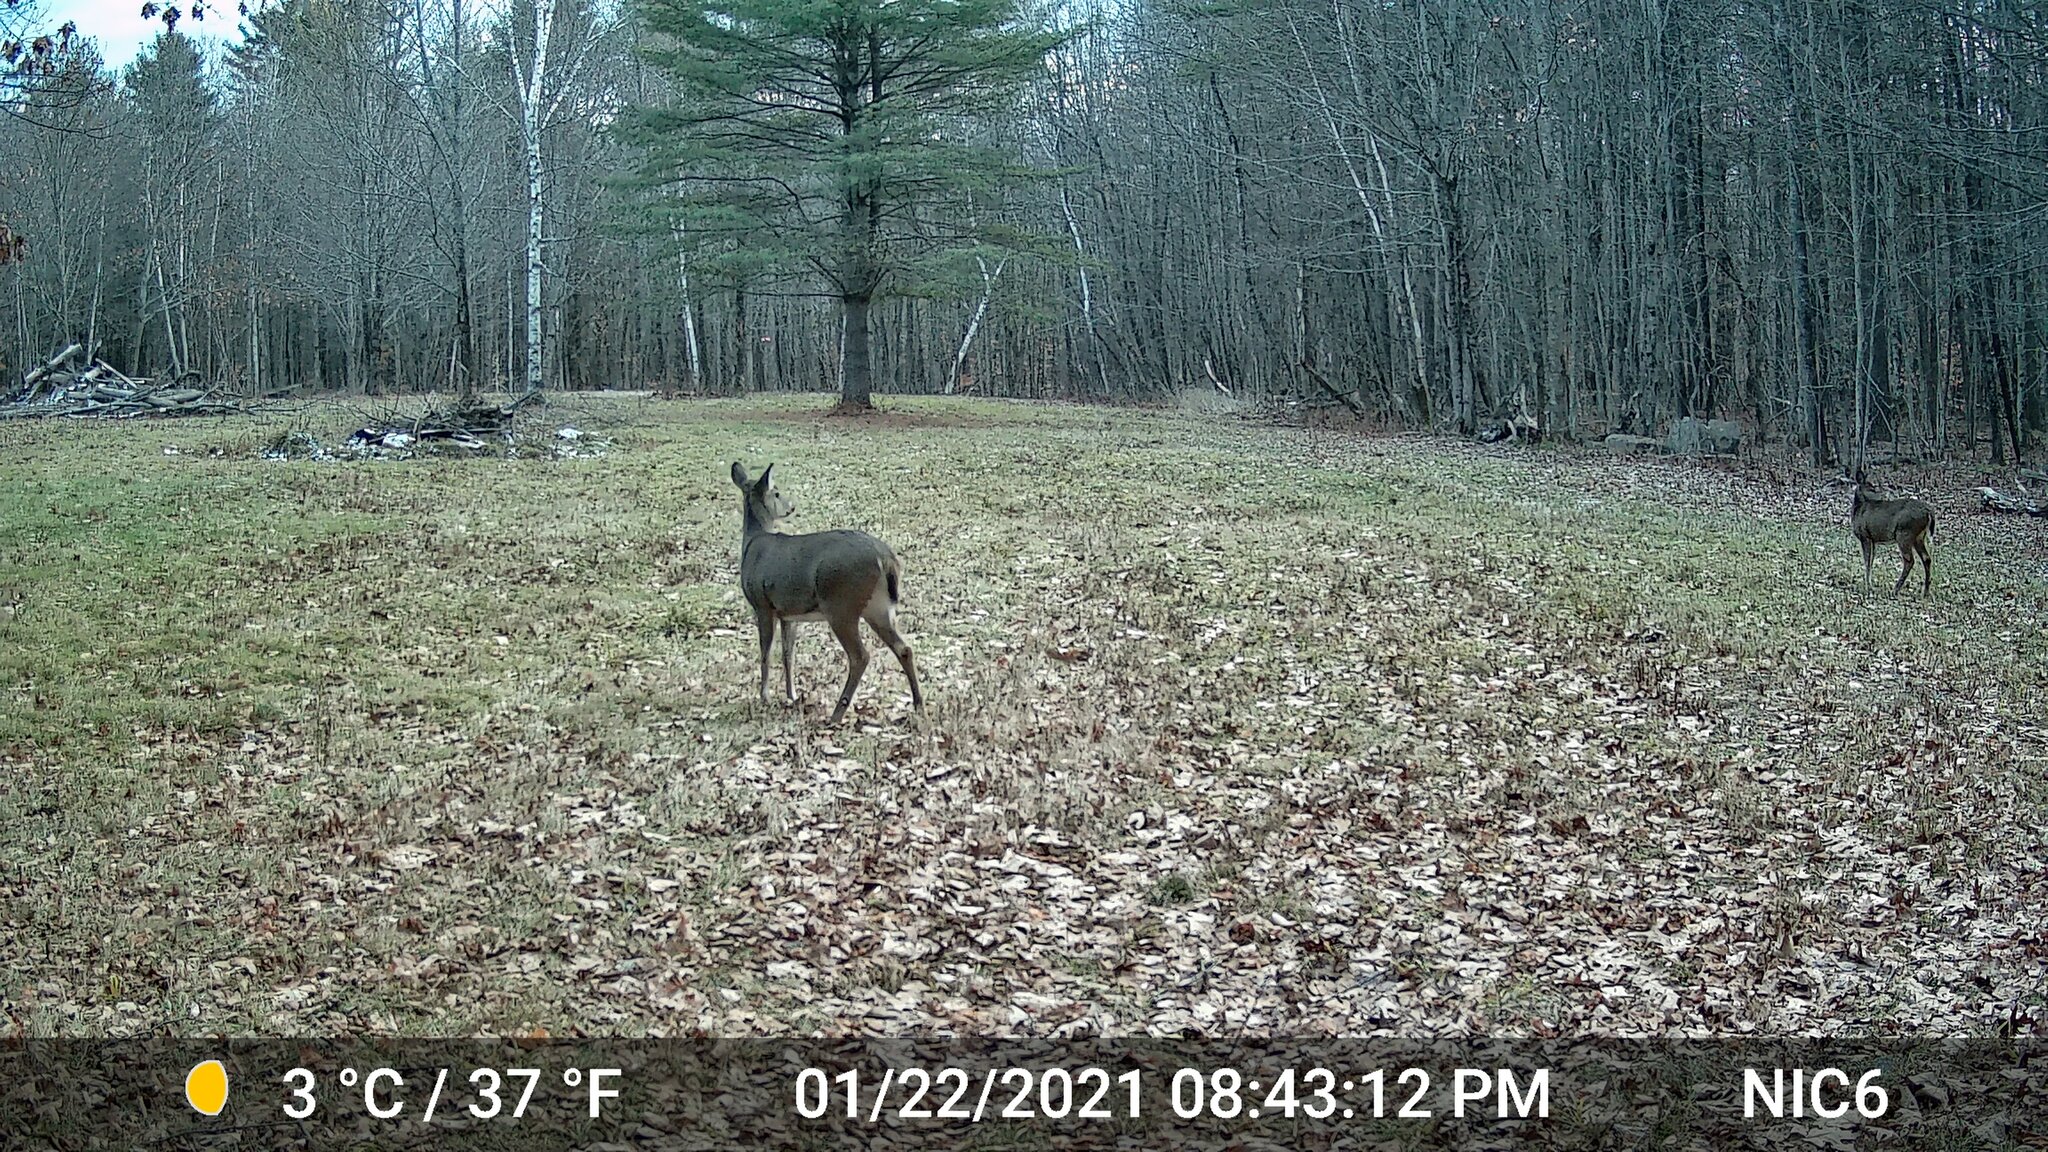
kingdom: Animalia
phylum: Chordata
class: Mammalia
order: Artiodactyla
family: Cervidae
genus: Odocoileus
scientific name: Odocoileus virginianus
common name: White-tailed deer
